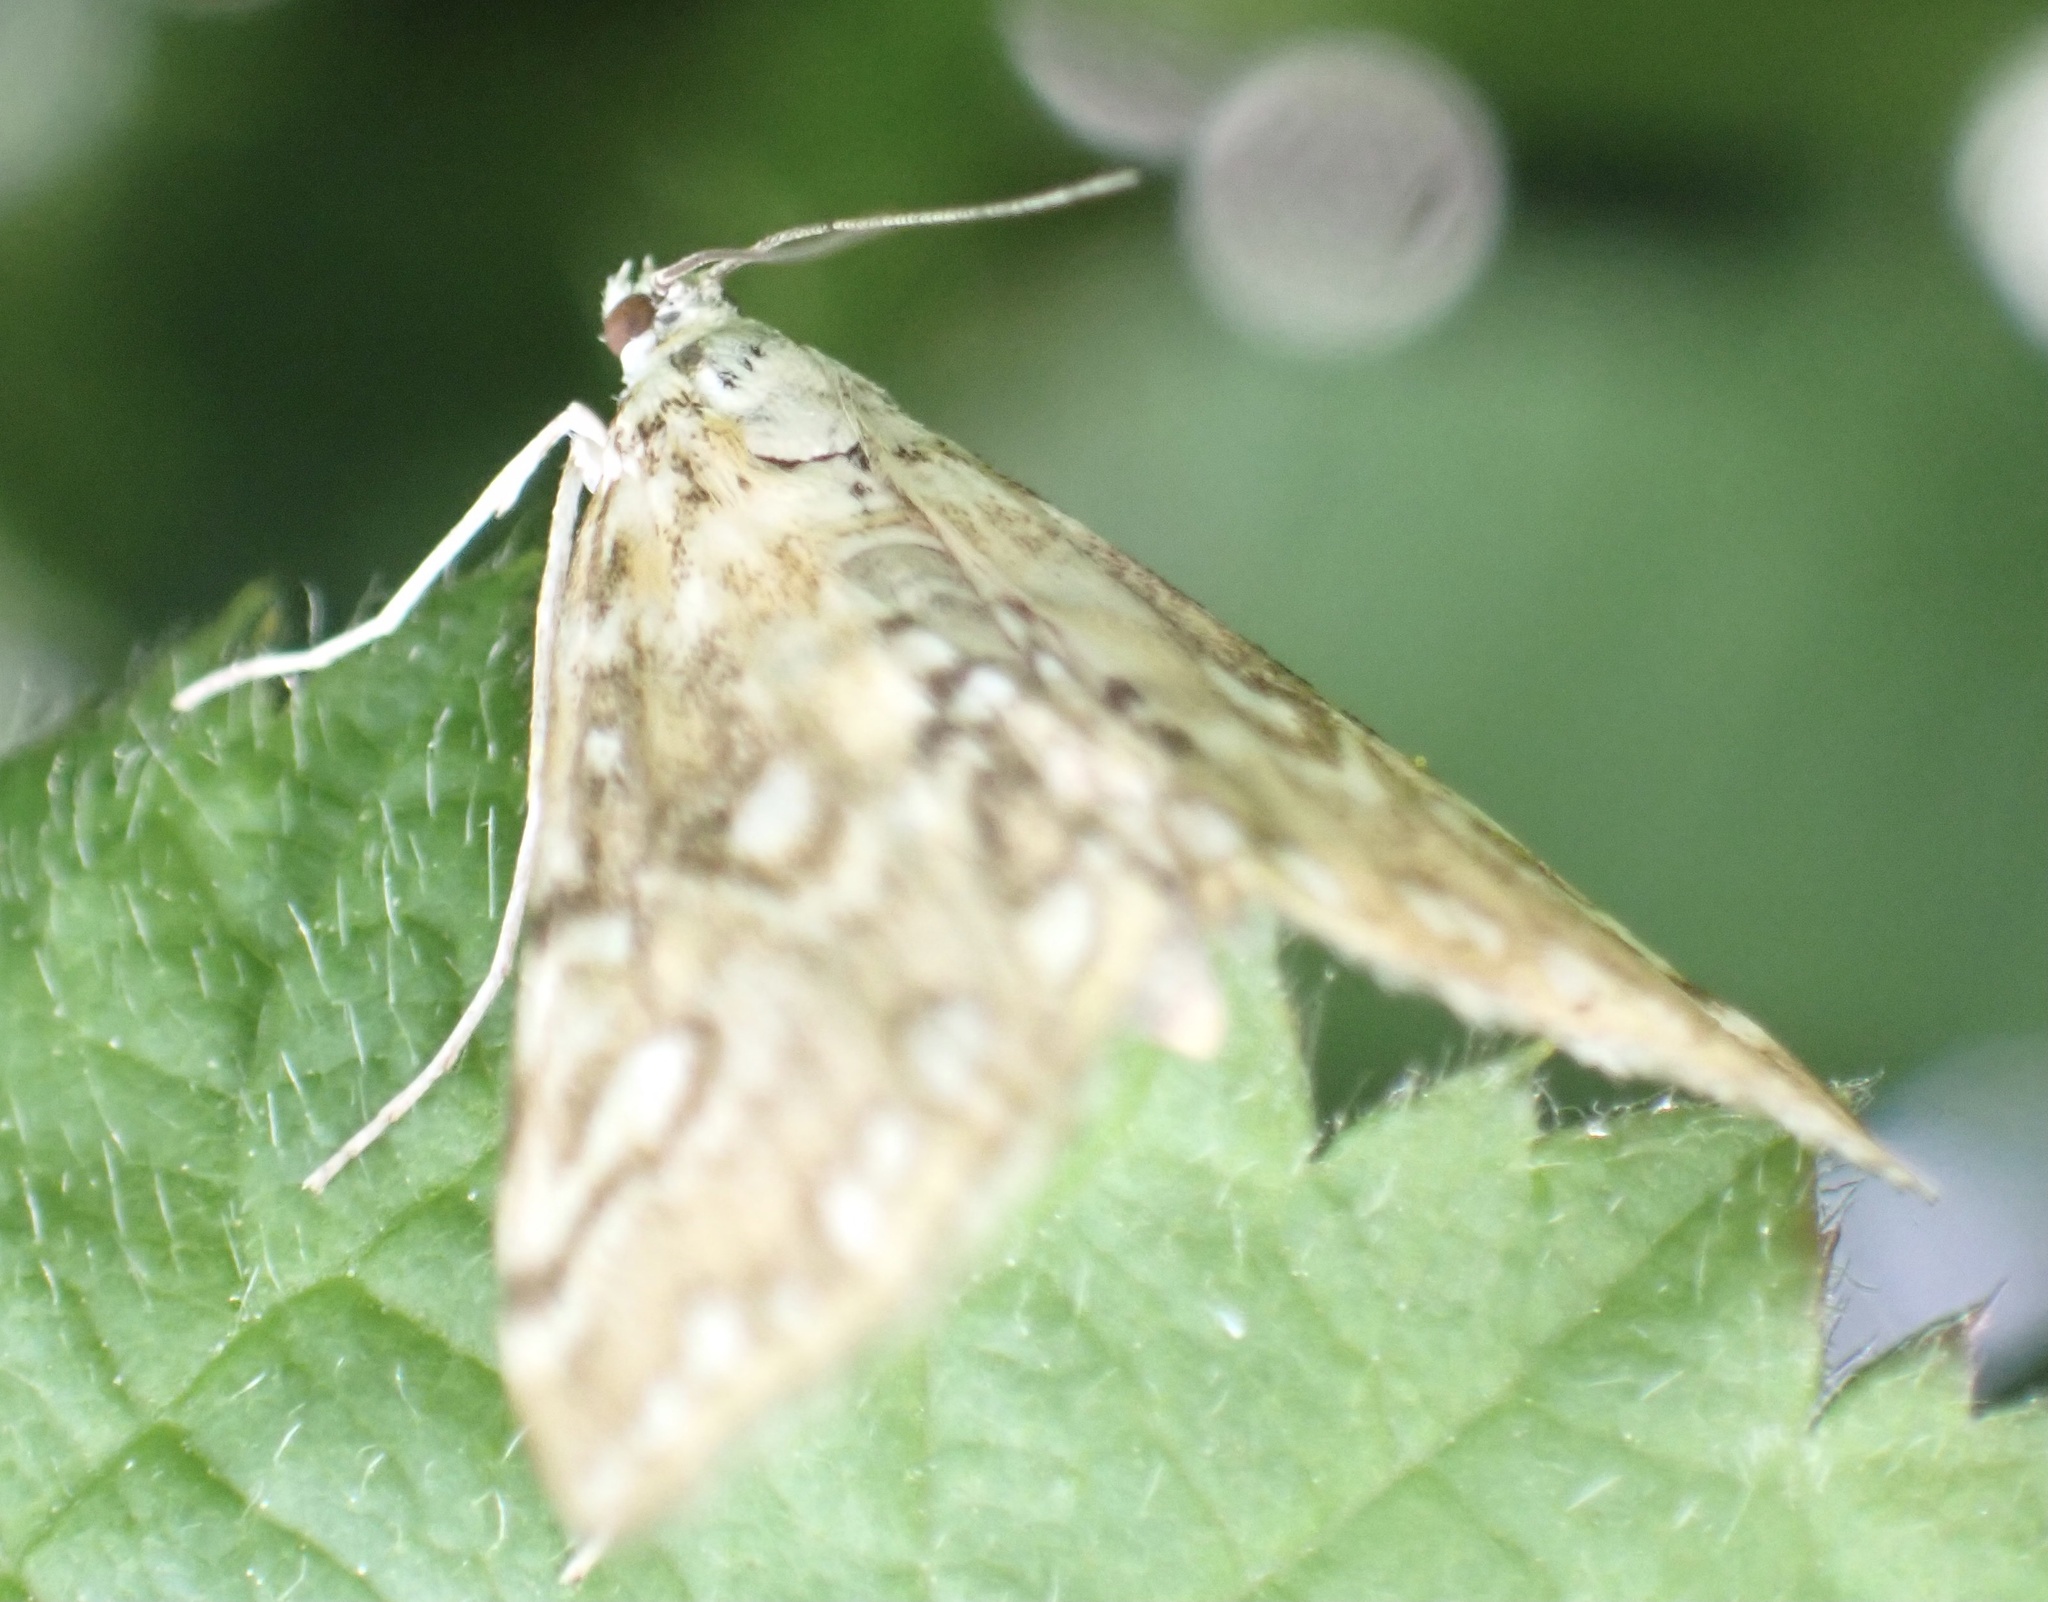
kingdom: Animalia
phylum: Arthropoda
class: Insecta
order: Lepidoptera
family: Crambidae
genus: Elophila
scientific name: Elophila nymphaeata
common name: Brown china-mark
